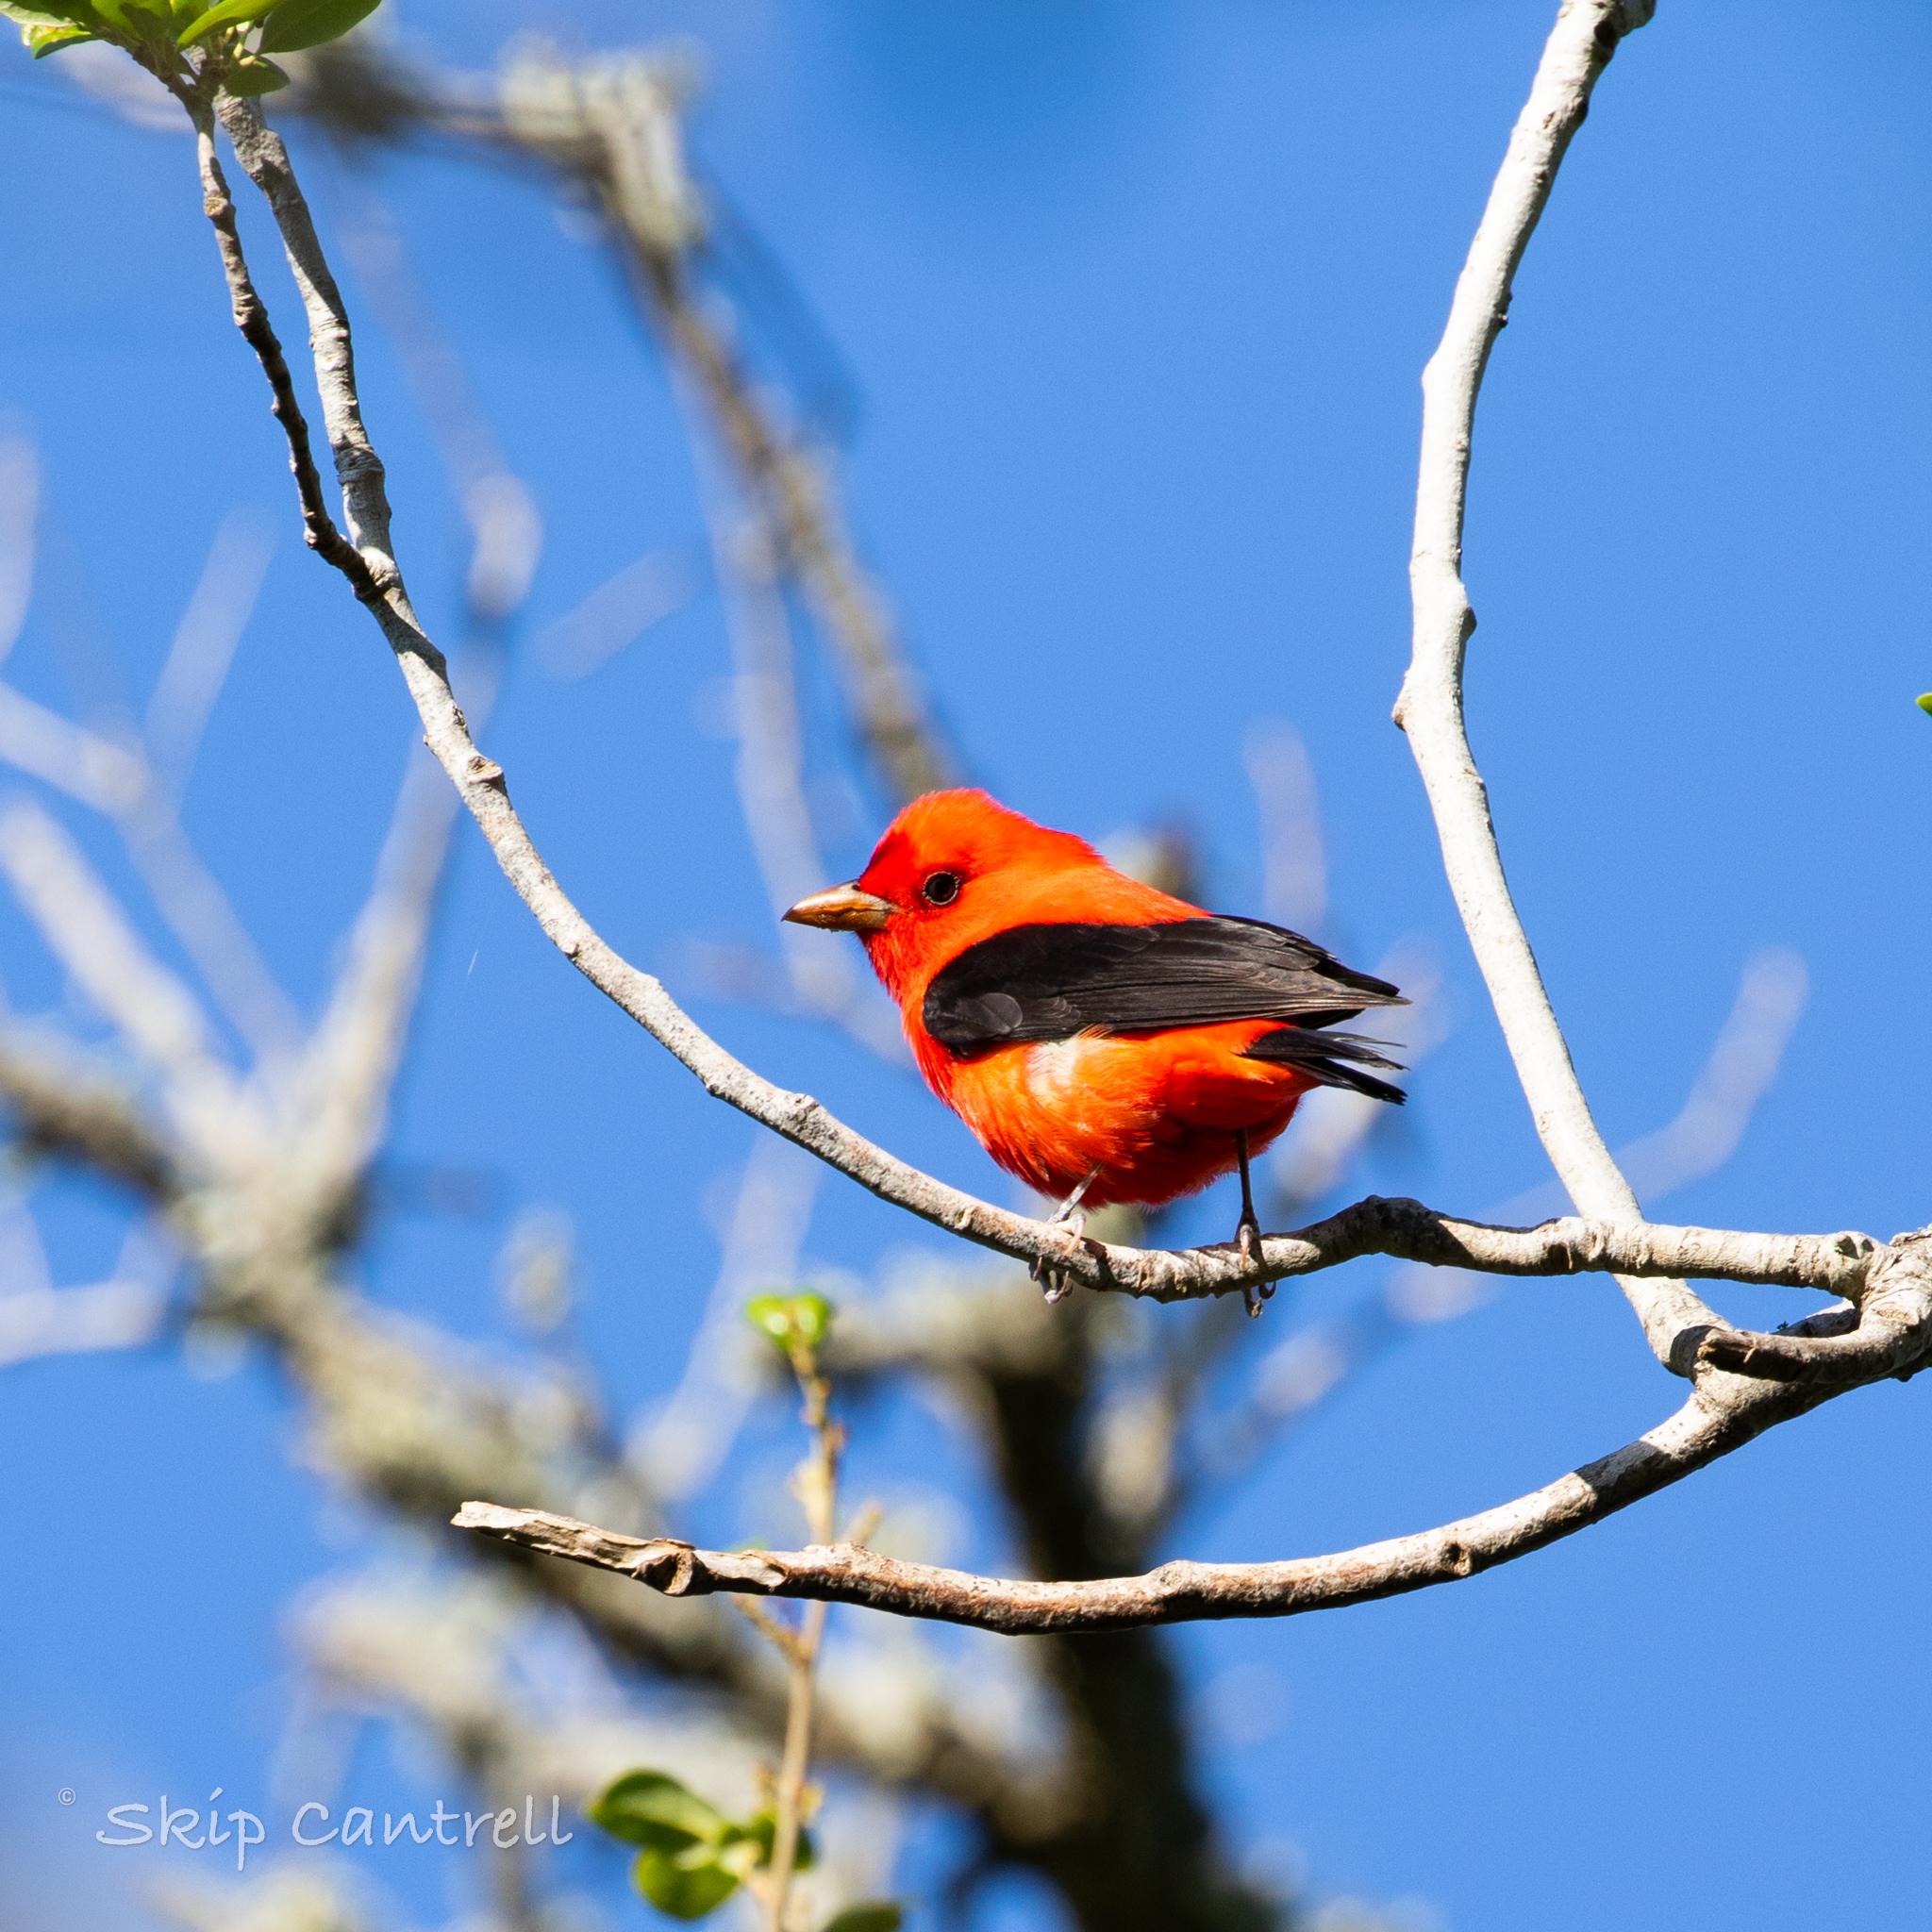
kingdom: Animalia
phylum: Chordata
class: Aves
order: Passeriformes
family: Cardinalidae
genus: Piranga
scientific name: Piranga olivacea
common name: Scarlet tanager
